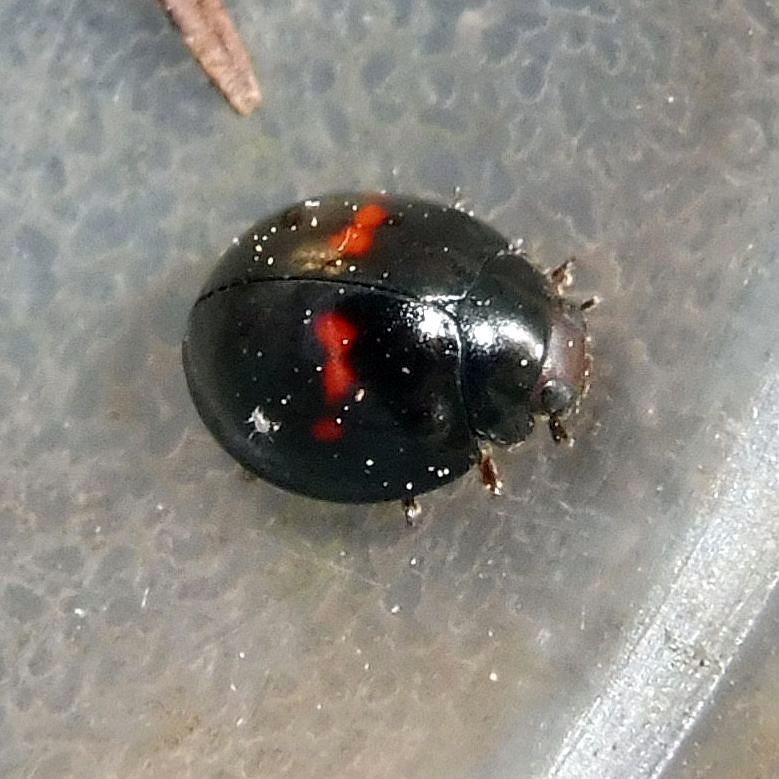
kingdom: Animalia
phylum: Arthropoda
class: Insecta
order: Coleoptera
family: Coccinellidae
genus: Chilocorus
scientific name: Chilocorus bipustulatus
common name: Heather ladybird
